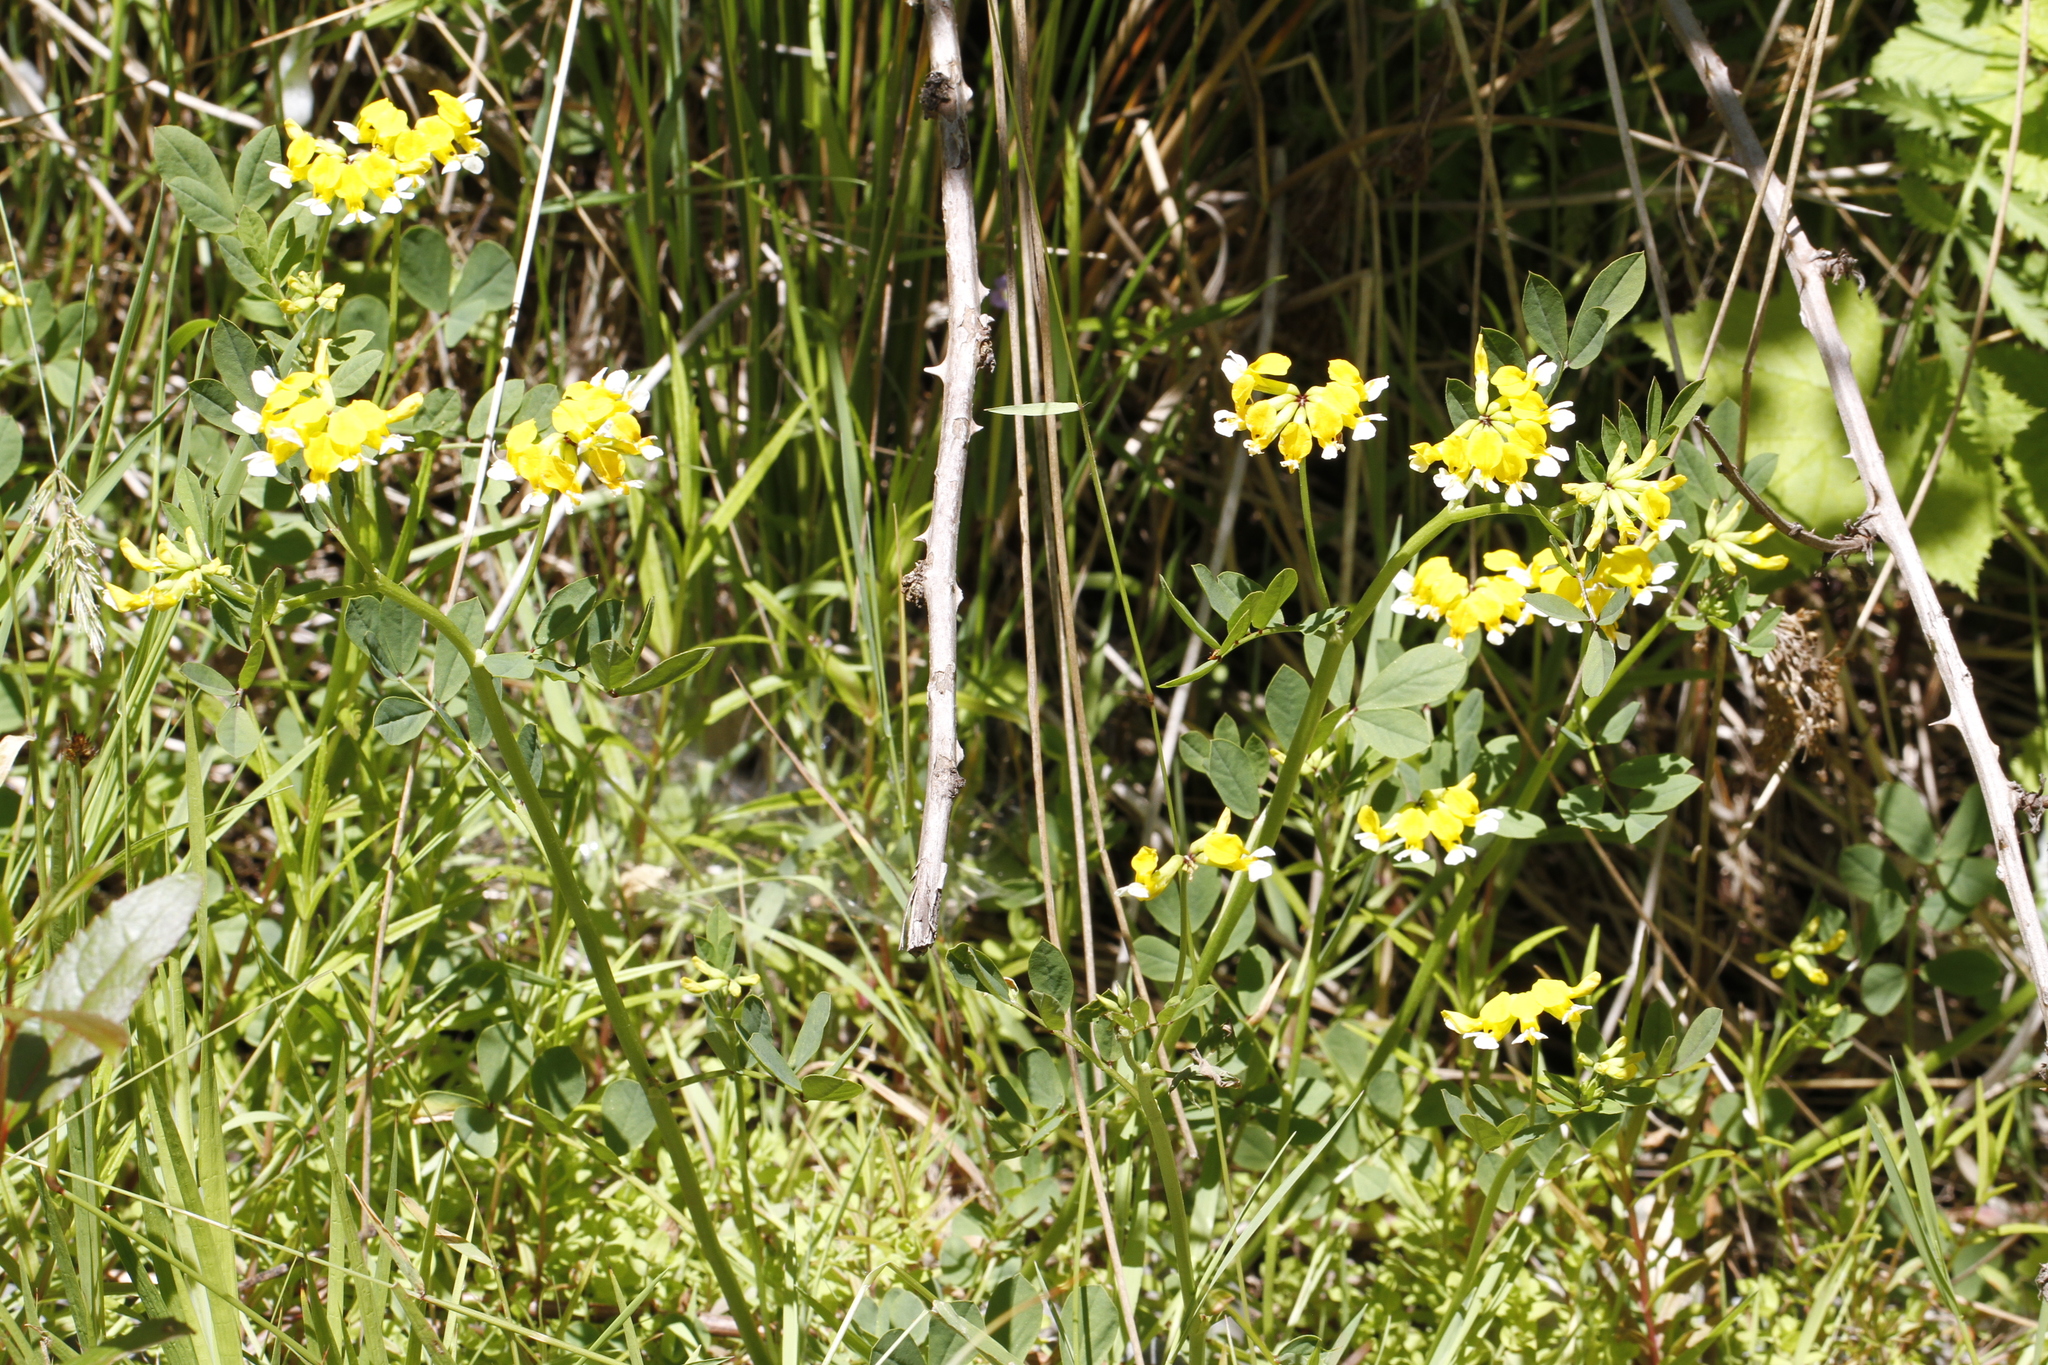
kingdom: Plantae
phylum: Tracheophyta
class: Magnoliopsida
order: Fabales
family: Fabaceae
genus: Hosackia
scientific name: Hosackia pinnata
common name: Bog bird's-foot trefoil
